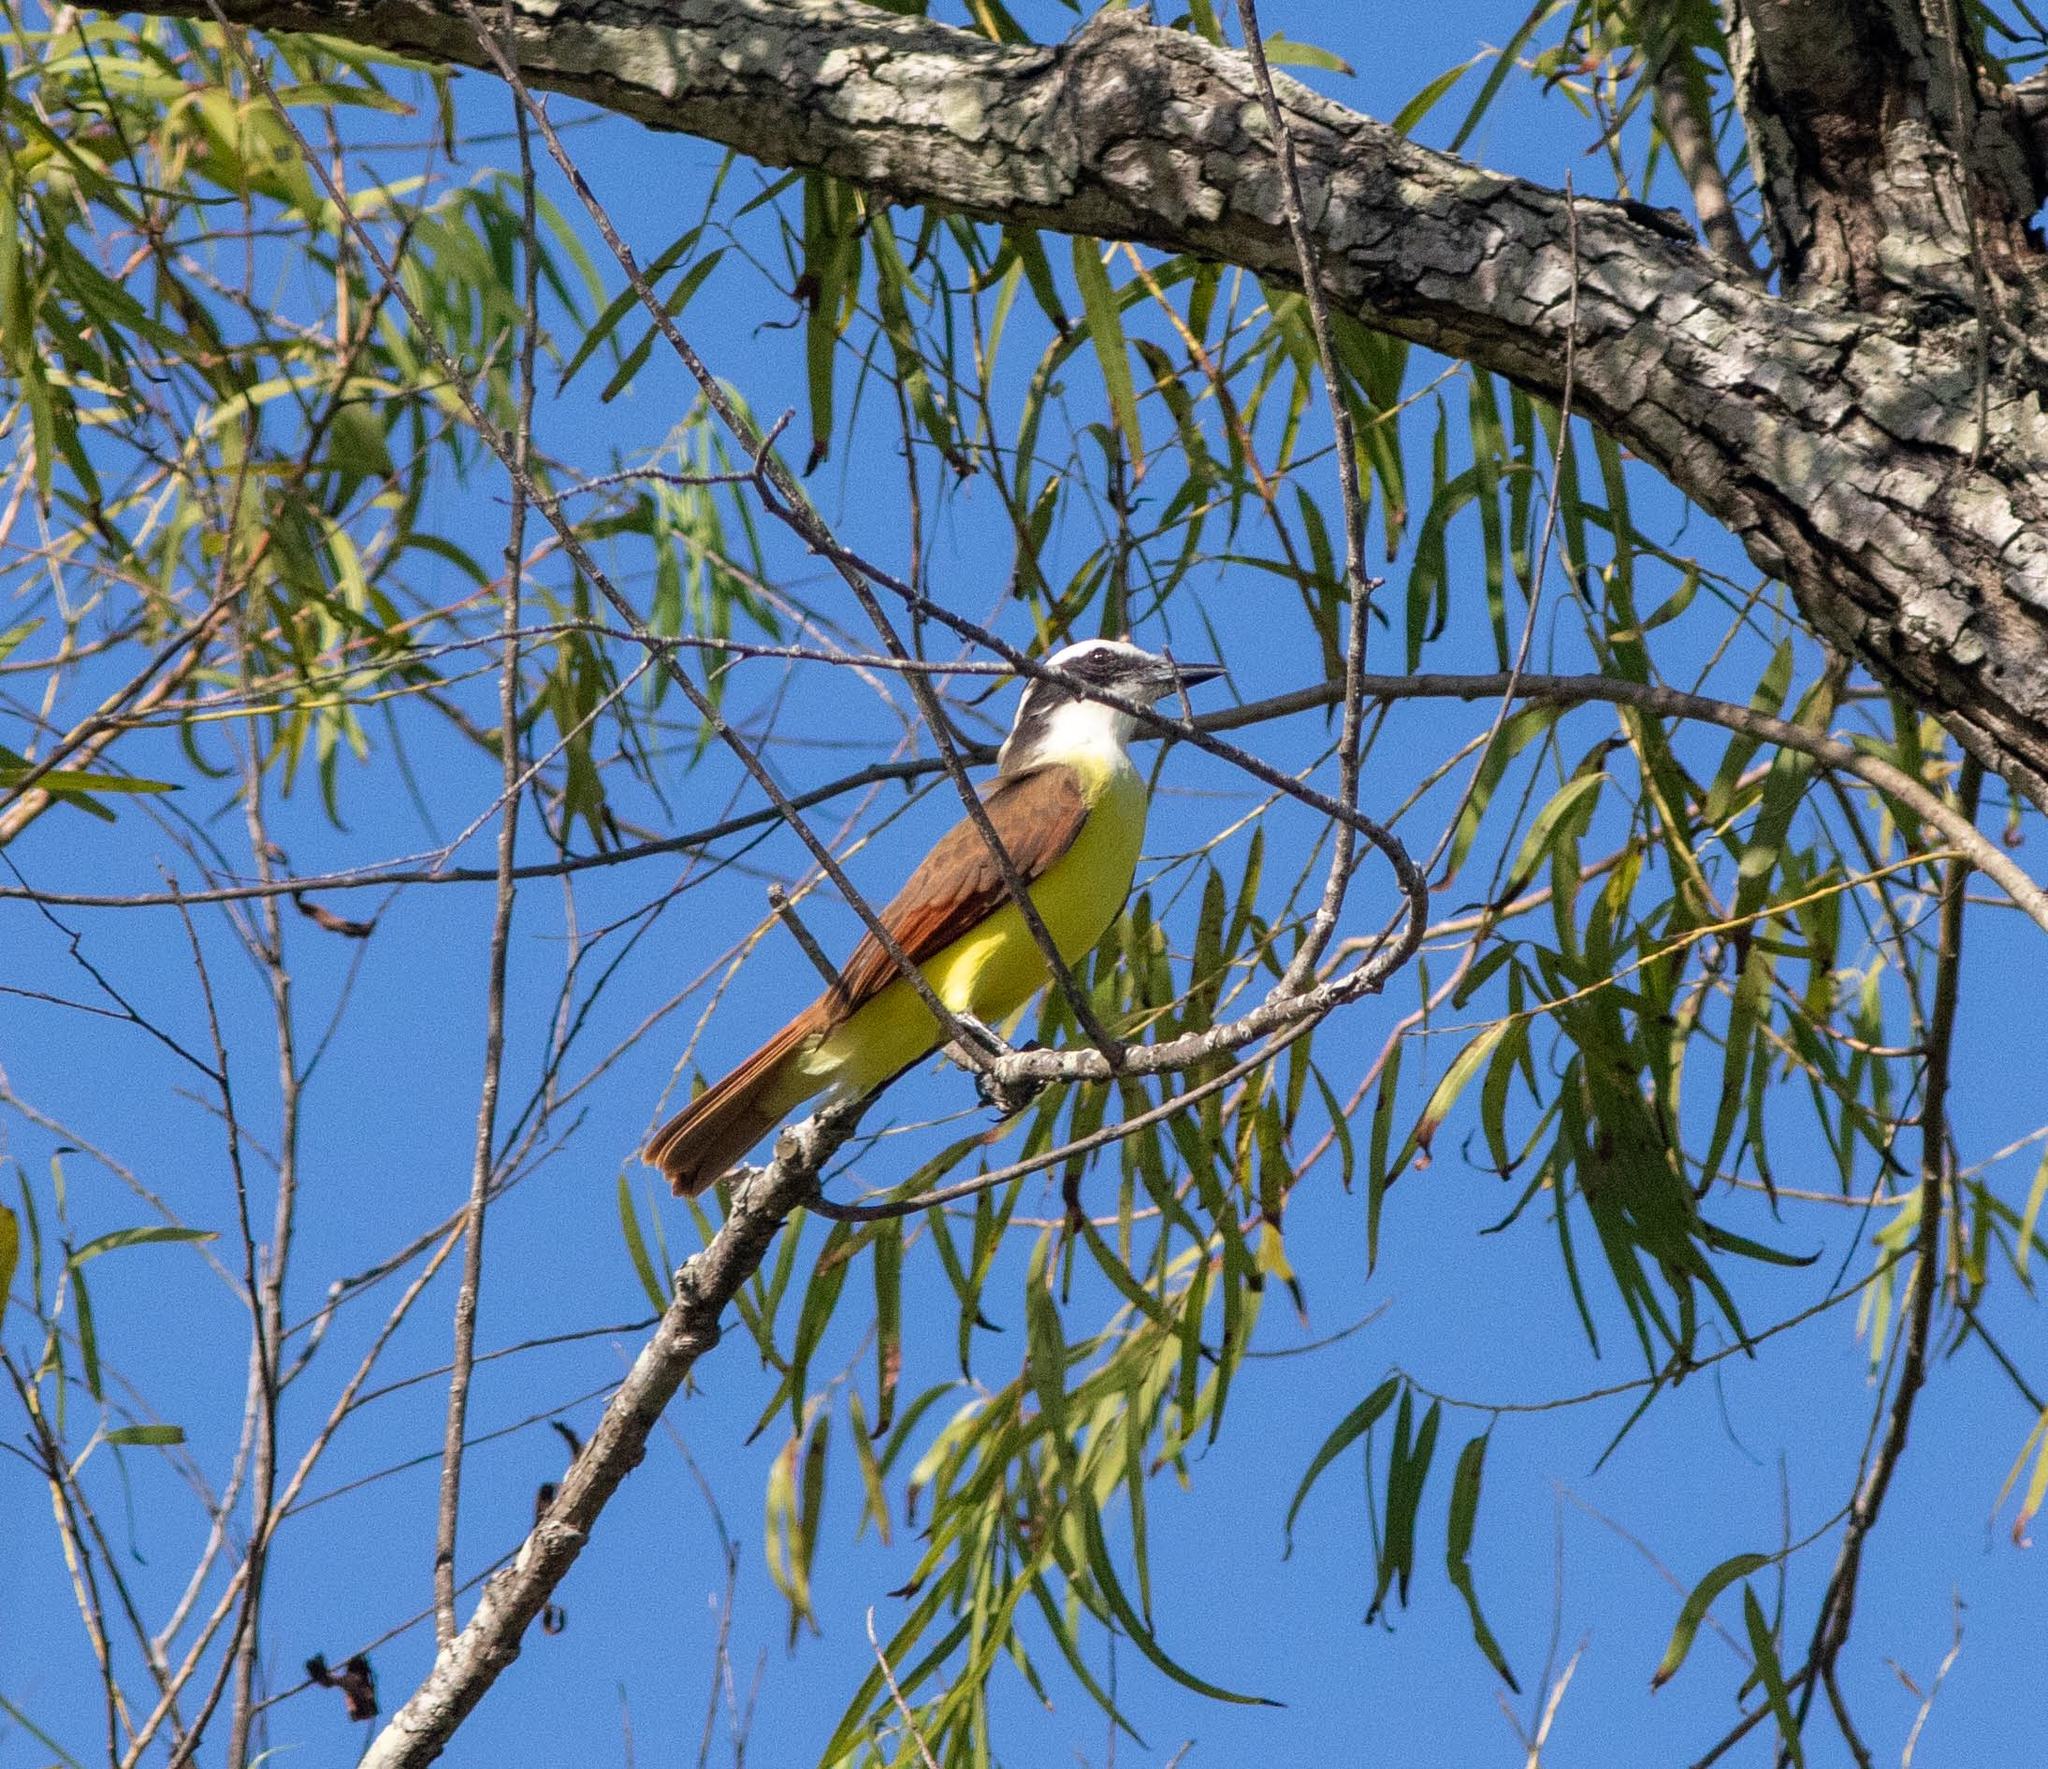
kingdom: Animalia
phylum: Chordata
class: Aves
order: Passeriformes
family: Tyrannidae
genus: Pitangus
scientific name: Pitangus sulphuratus
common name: Great kiskadee
